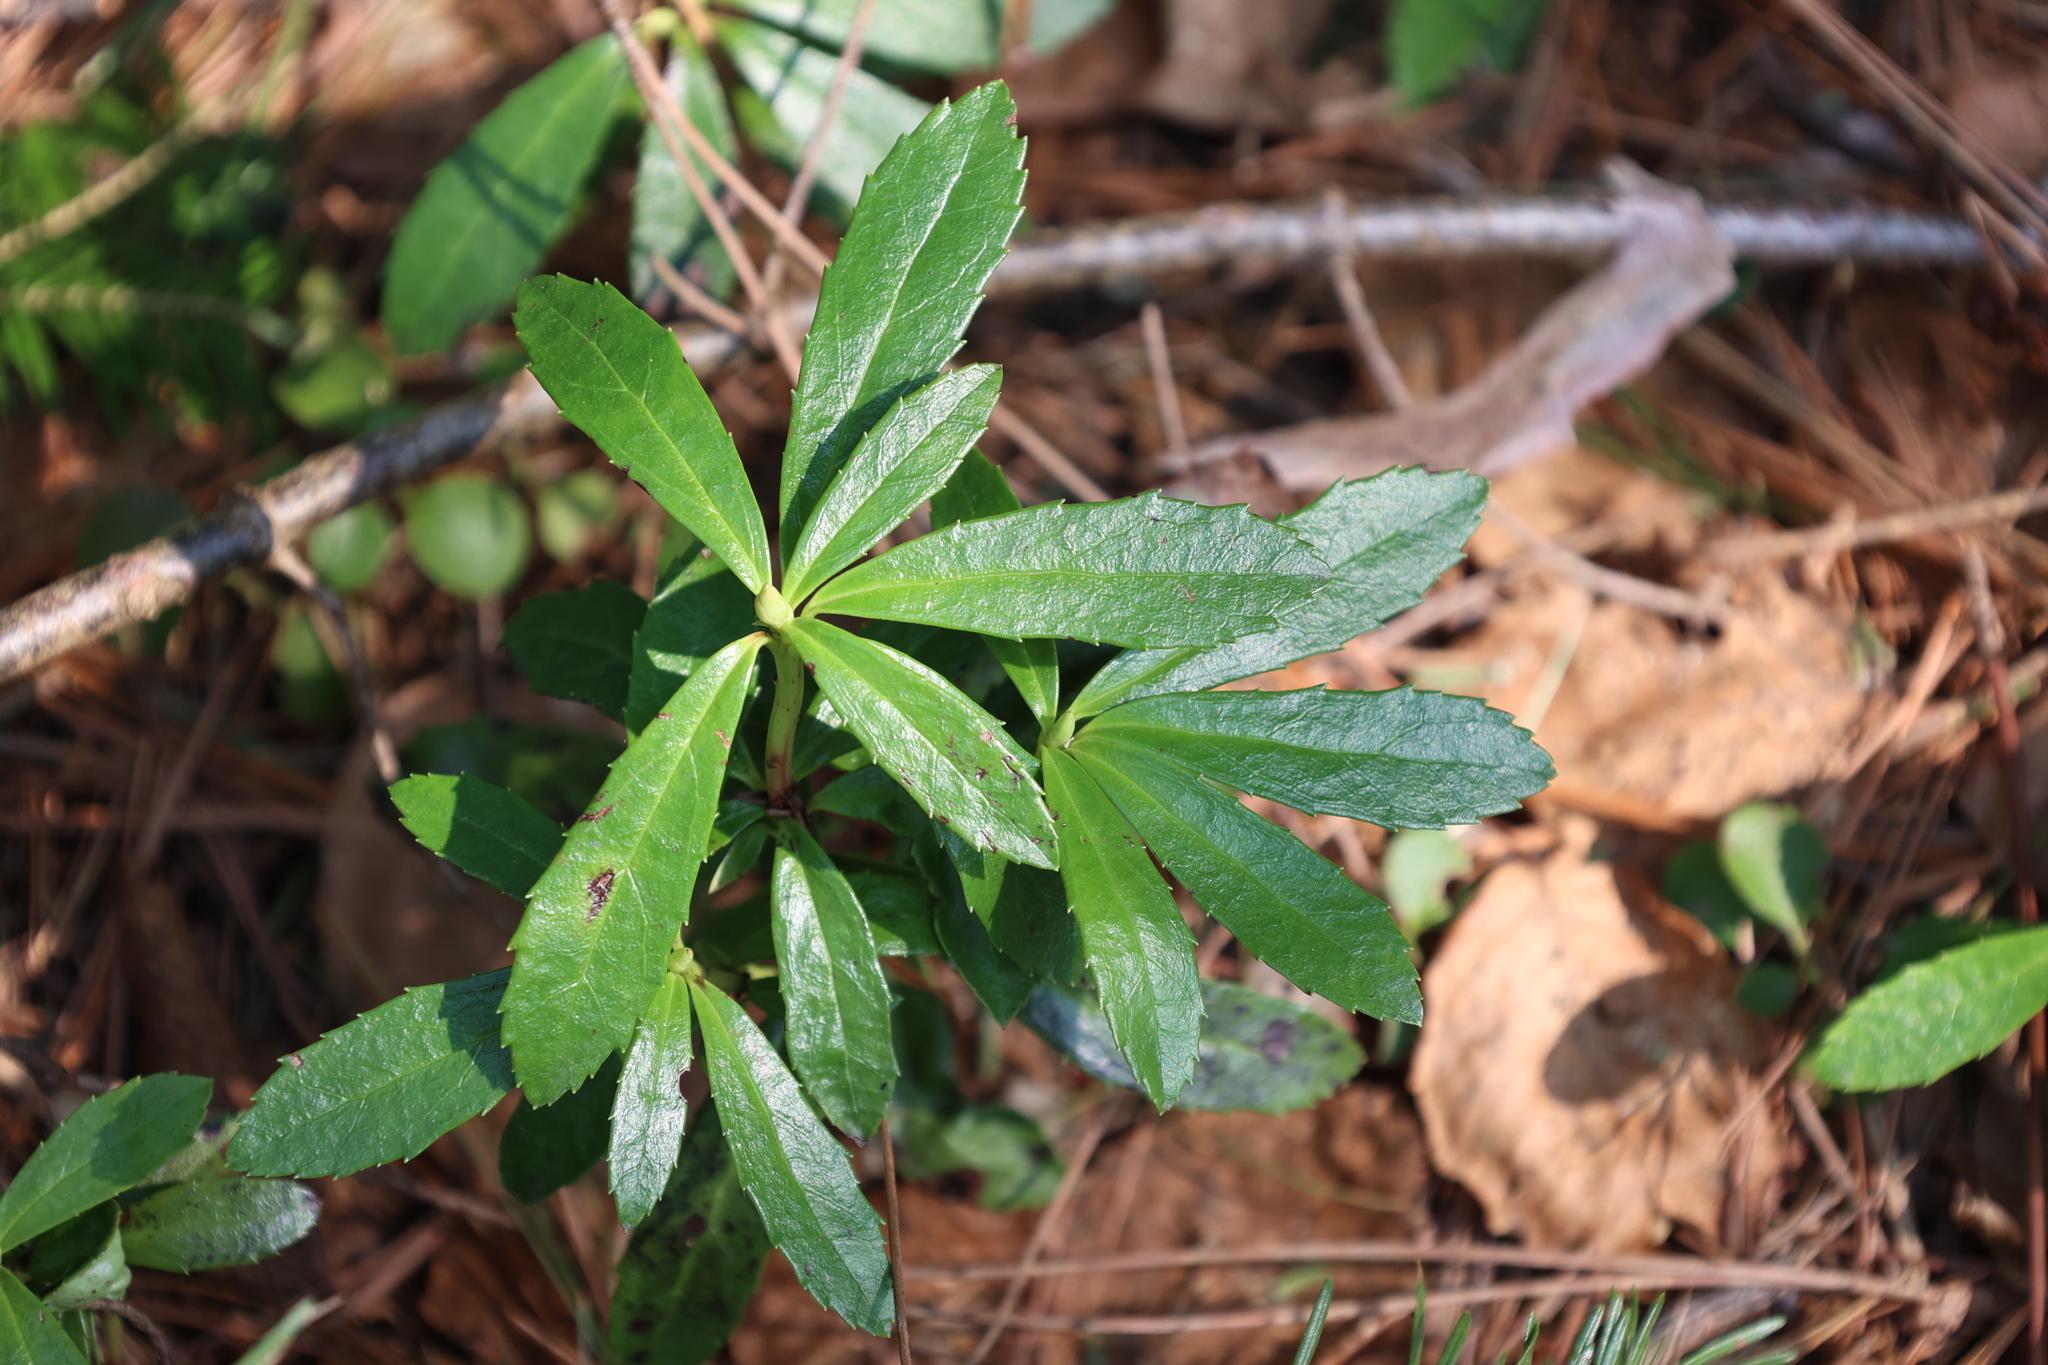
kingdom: Plantae
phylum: Tracheophyta
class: Magnoliopsida
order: Ericales
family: Ericaceae
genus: Chimaphila
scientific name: Chimaphila umbellata
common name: Pipsissewa
